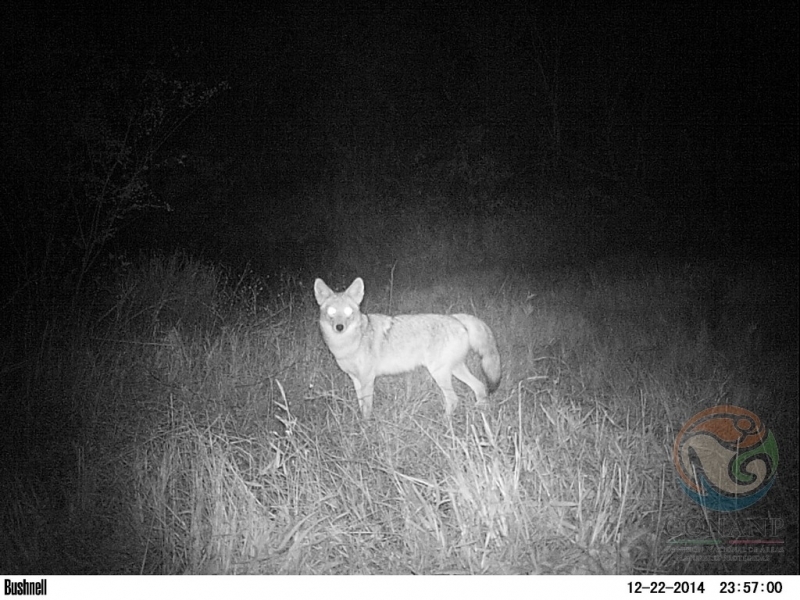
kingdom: Animalia
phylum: Chordata
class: Mammalia
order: Carnivora
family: Canidae
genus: Canis
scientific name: Canis latrans
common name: Coyote
